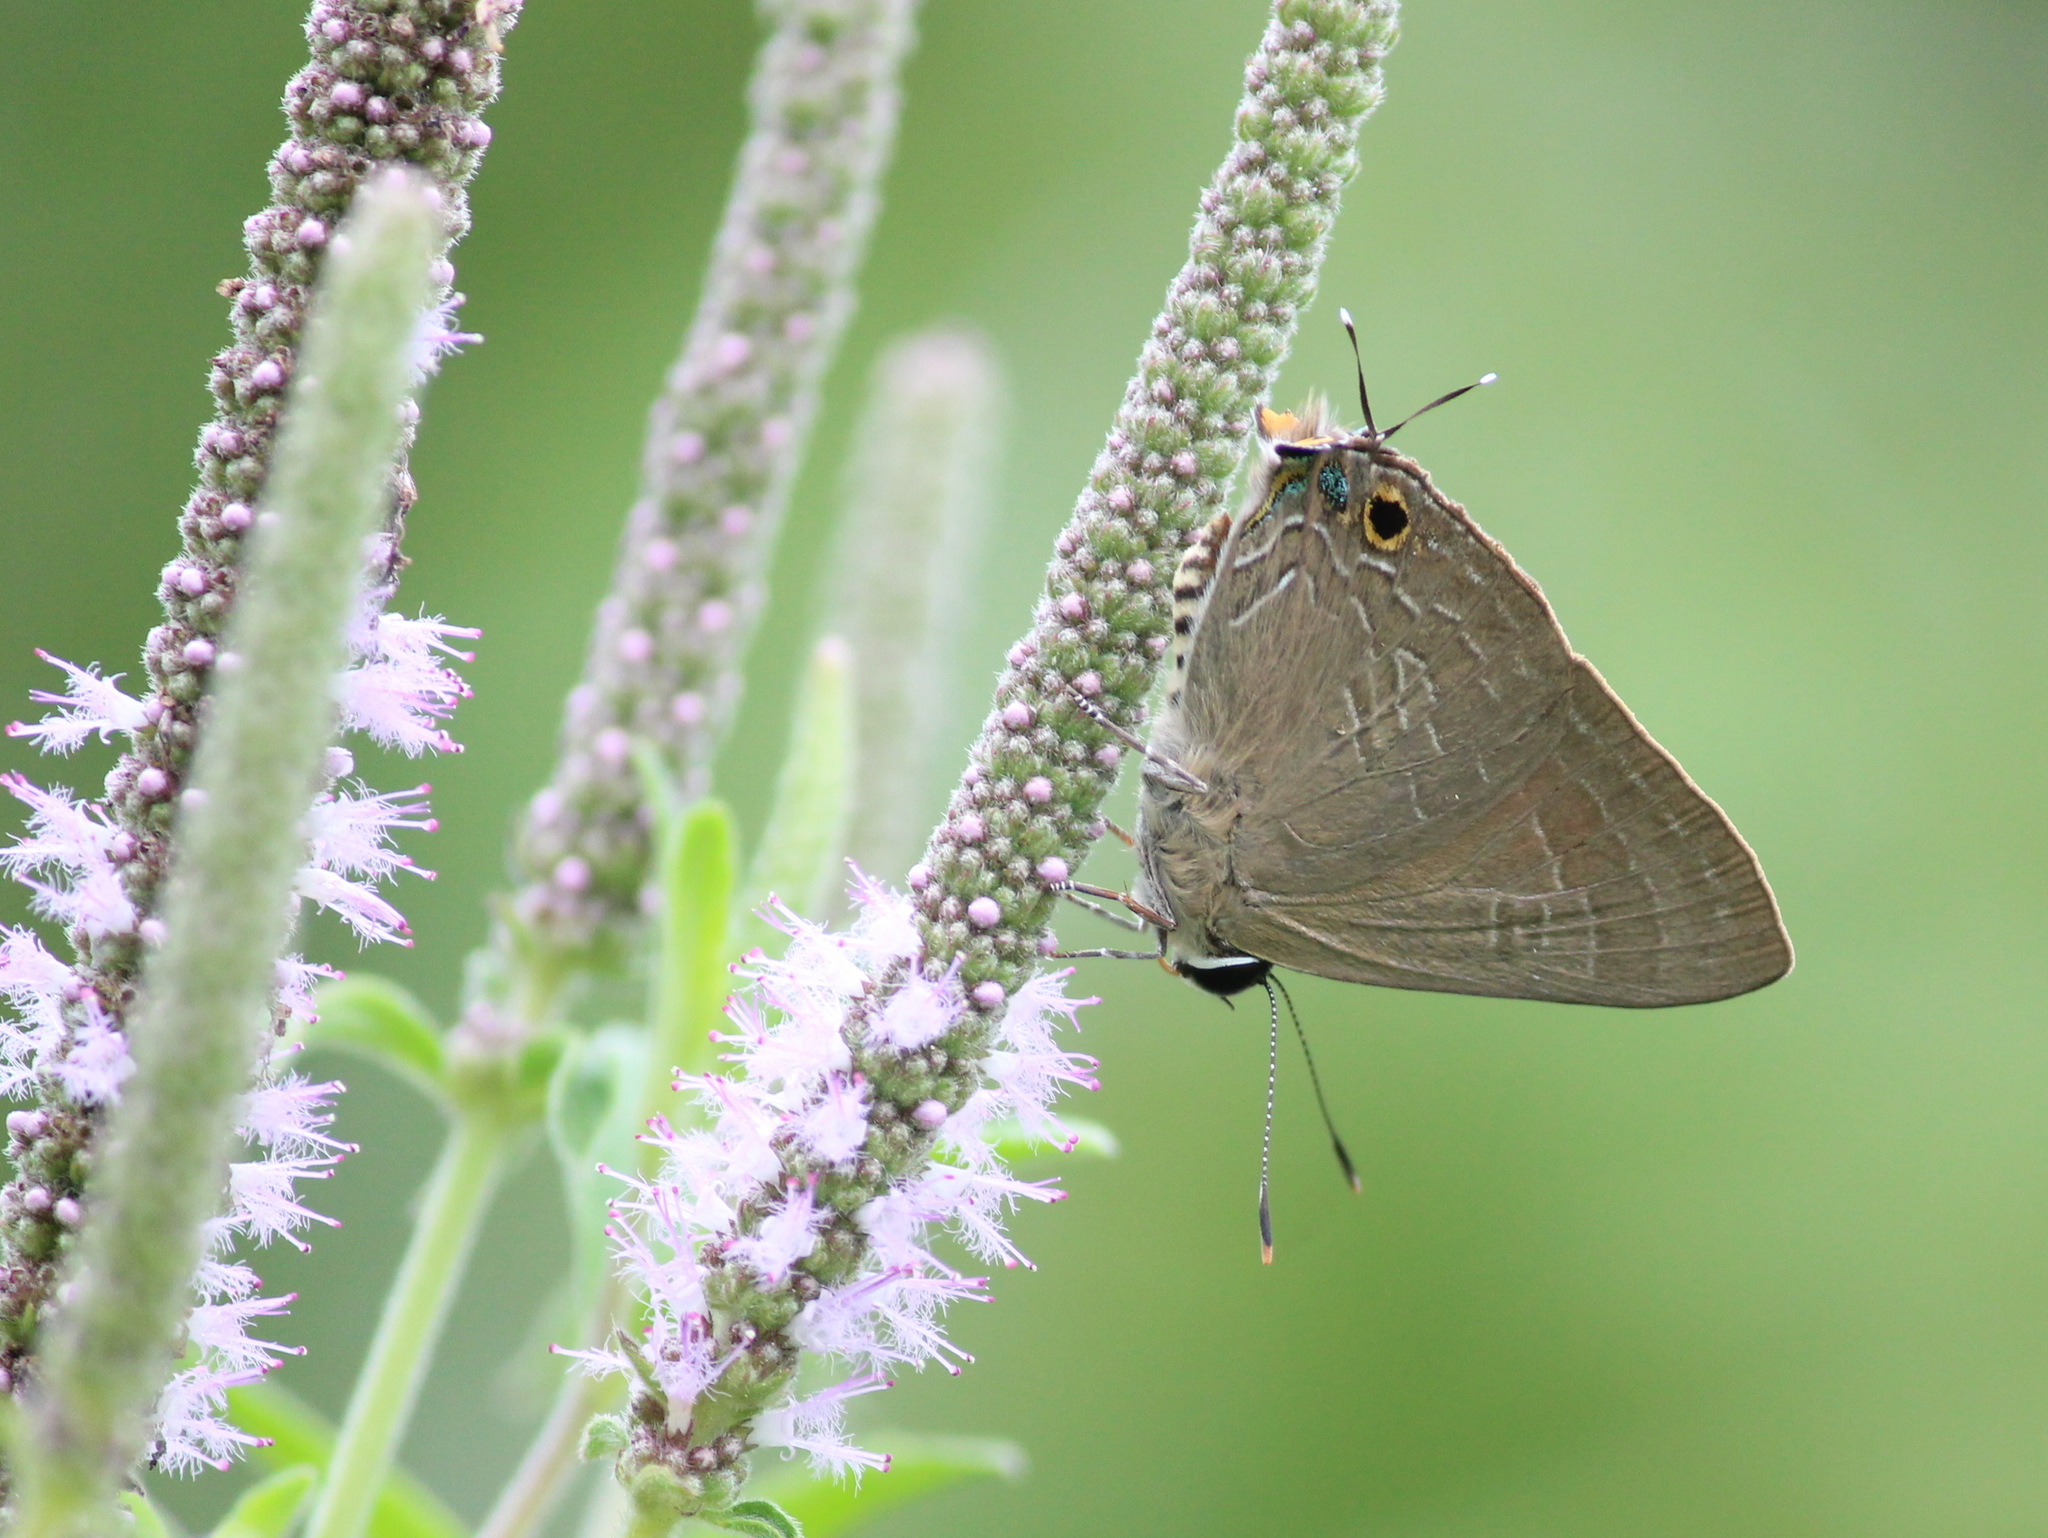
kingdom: Animalia
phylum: Arthropoda
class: Insecta
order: Lepidoptera
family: Lycaenidae
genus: Deudorix
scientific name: Deudorix epijarbas
